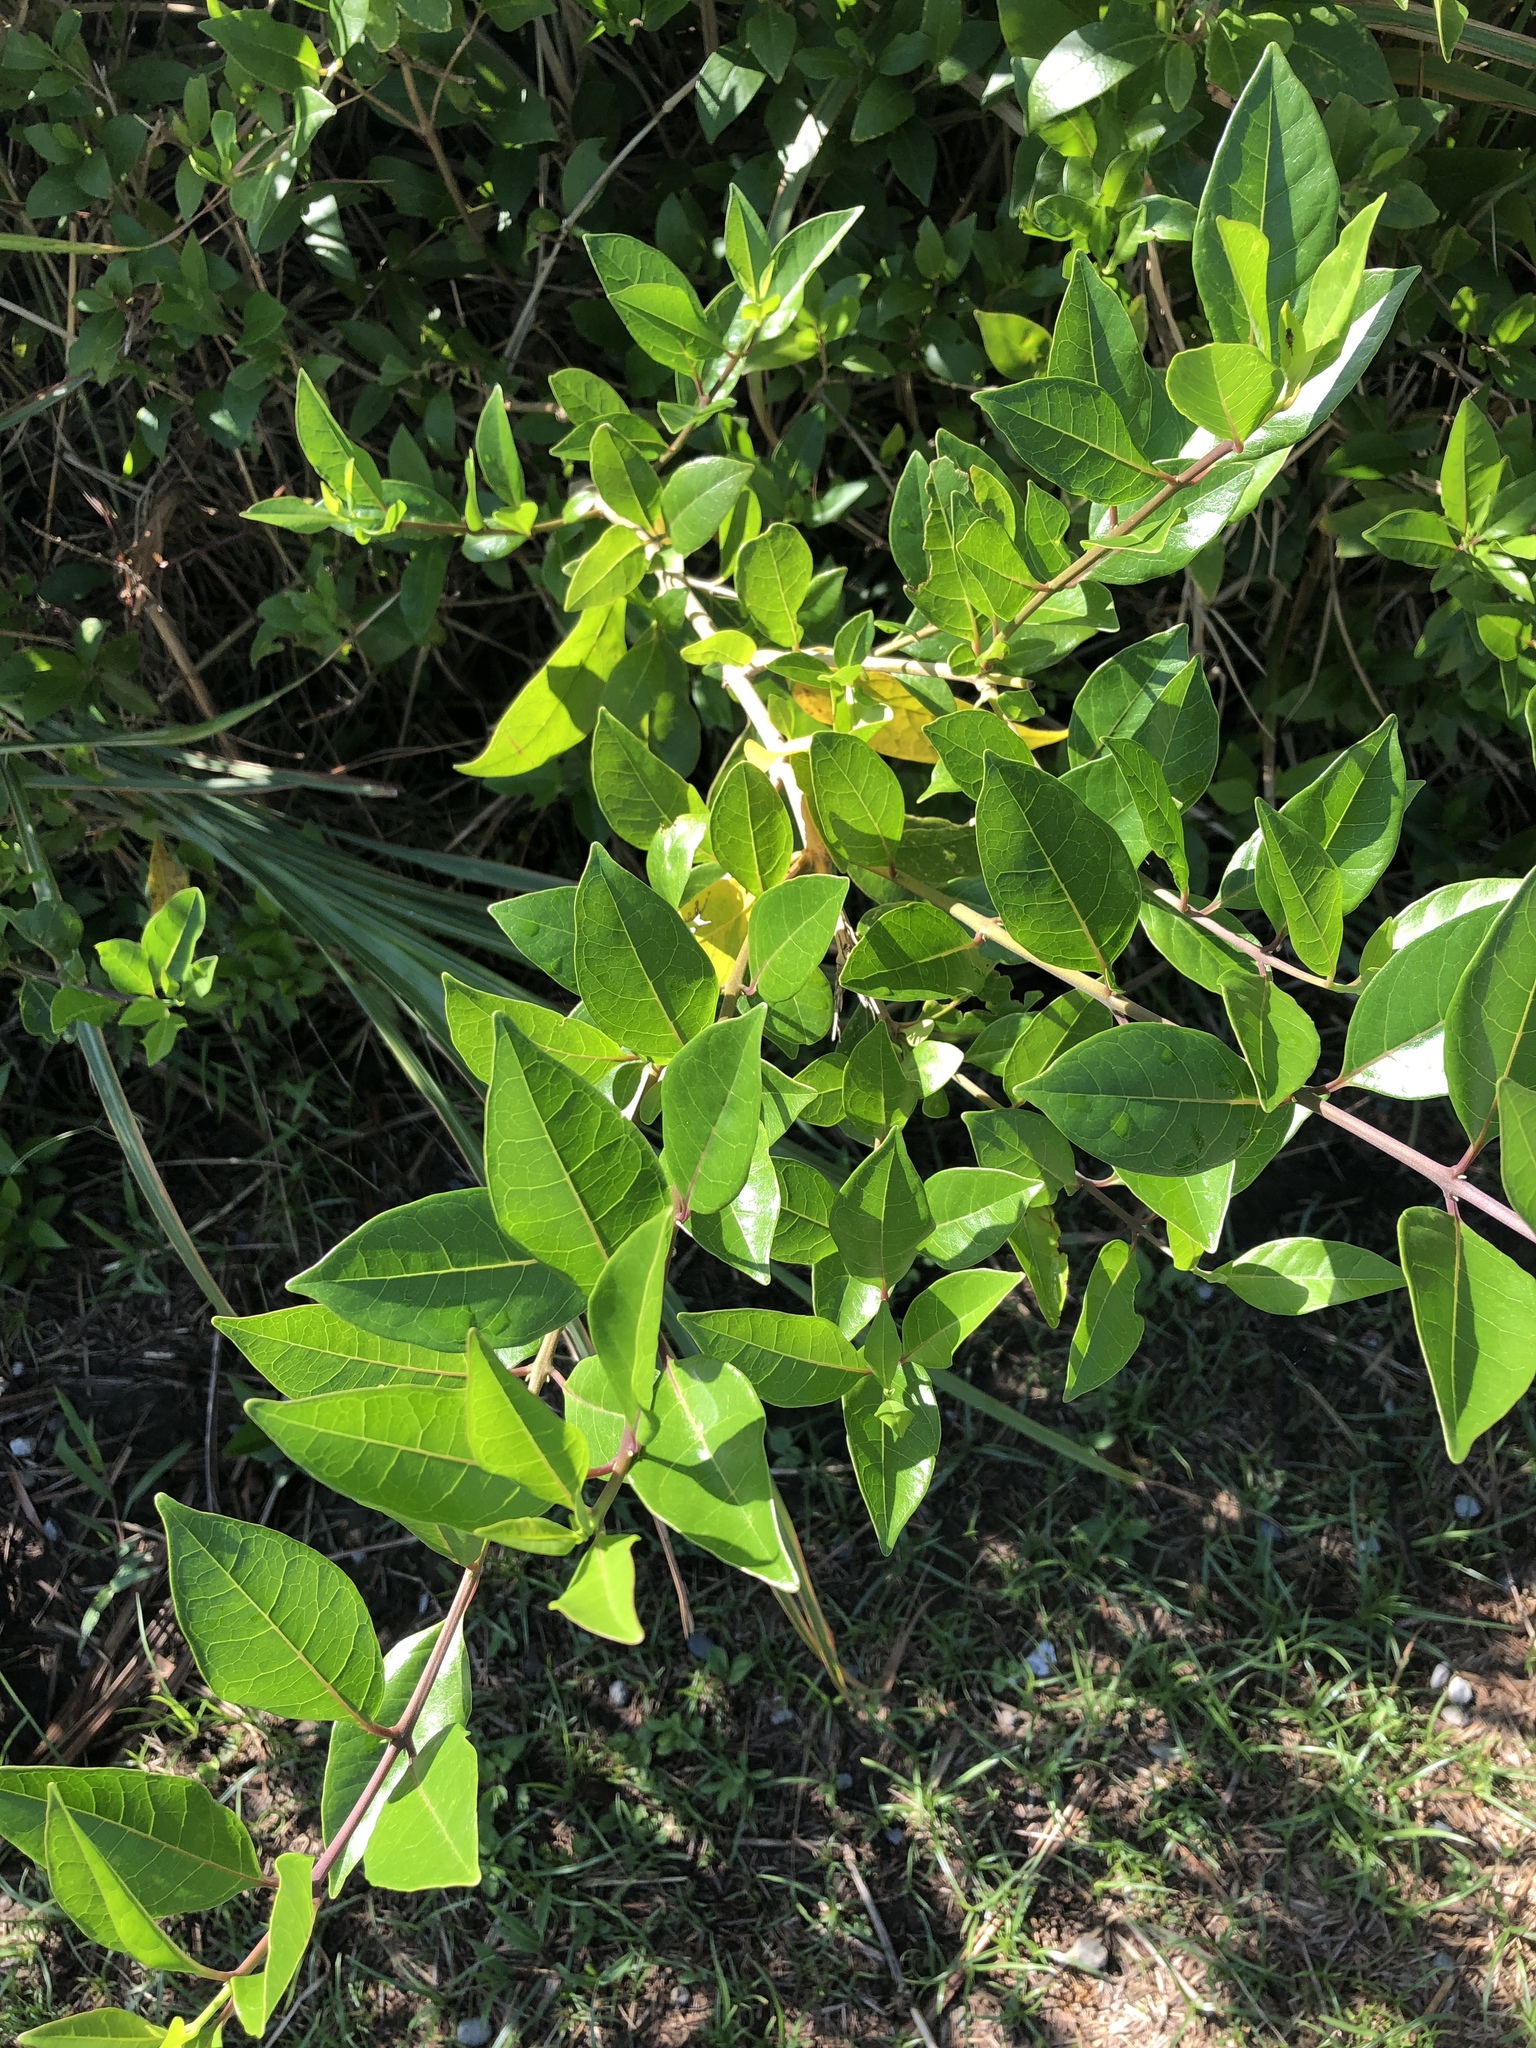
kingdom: Plantae
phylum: Tracheophyta
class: Magnoliopsida
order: Lamiales
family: Lamiaceae
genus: Volkameria
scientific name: Volkameria inermis
